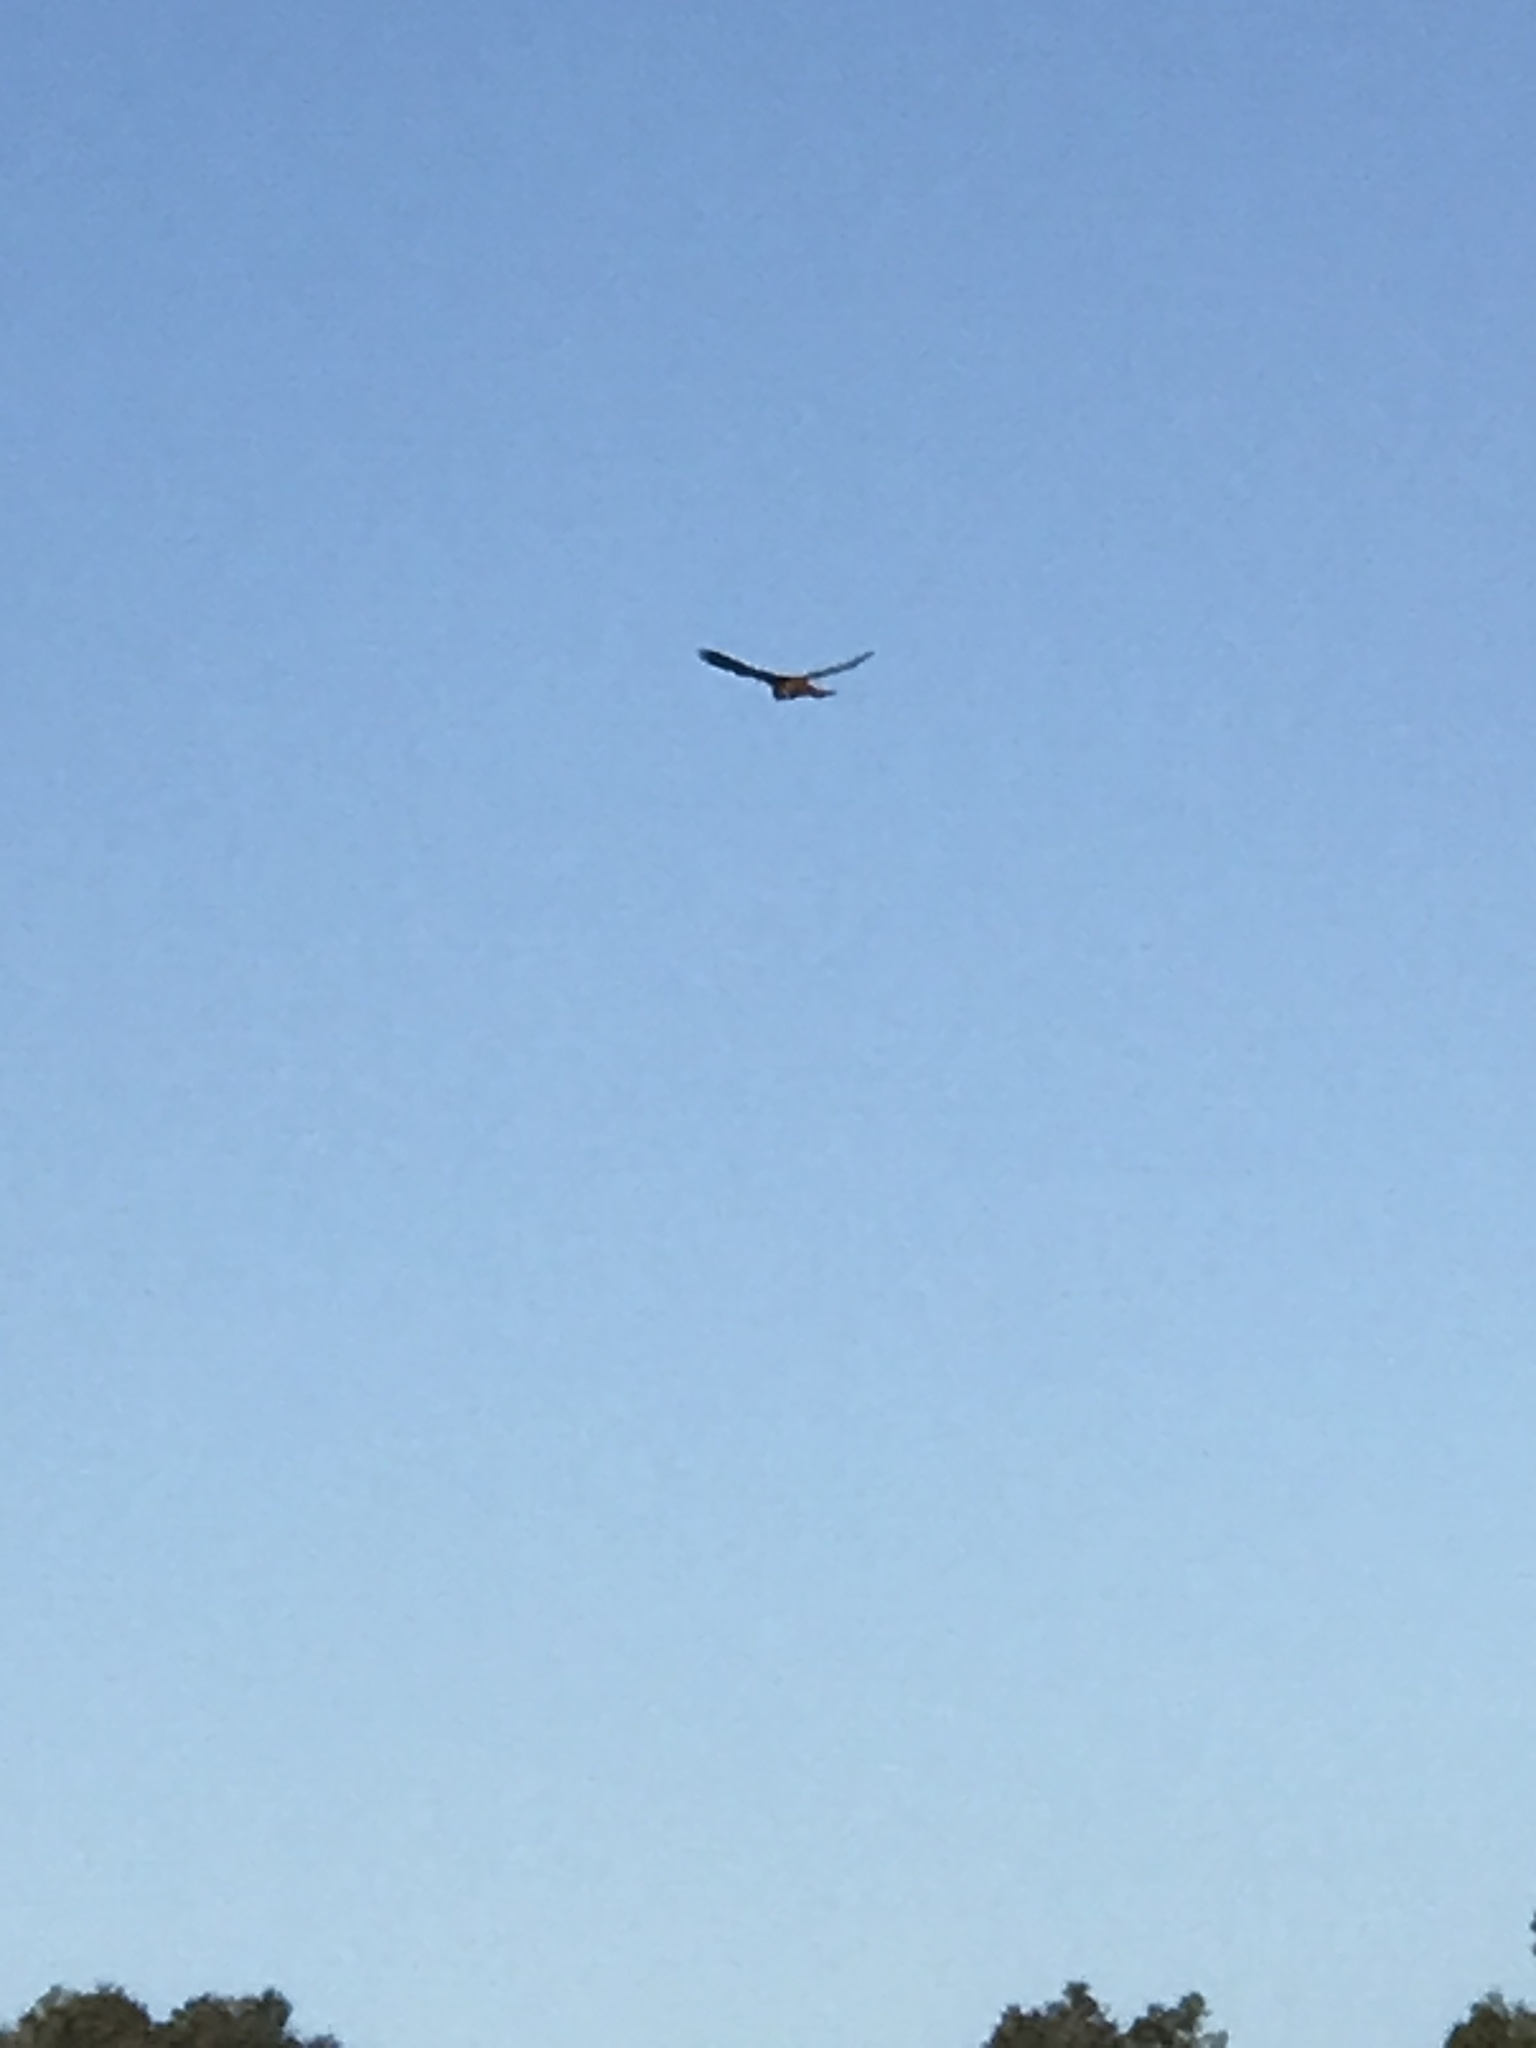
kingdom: Animalia
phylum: Chordata
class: Aves
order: Falconiformes
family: Falconidae
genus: Falco
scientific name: Falco sparverius
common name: American kestrel
